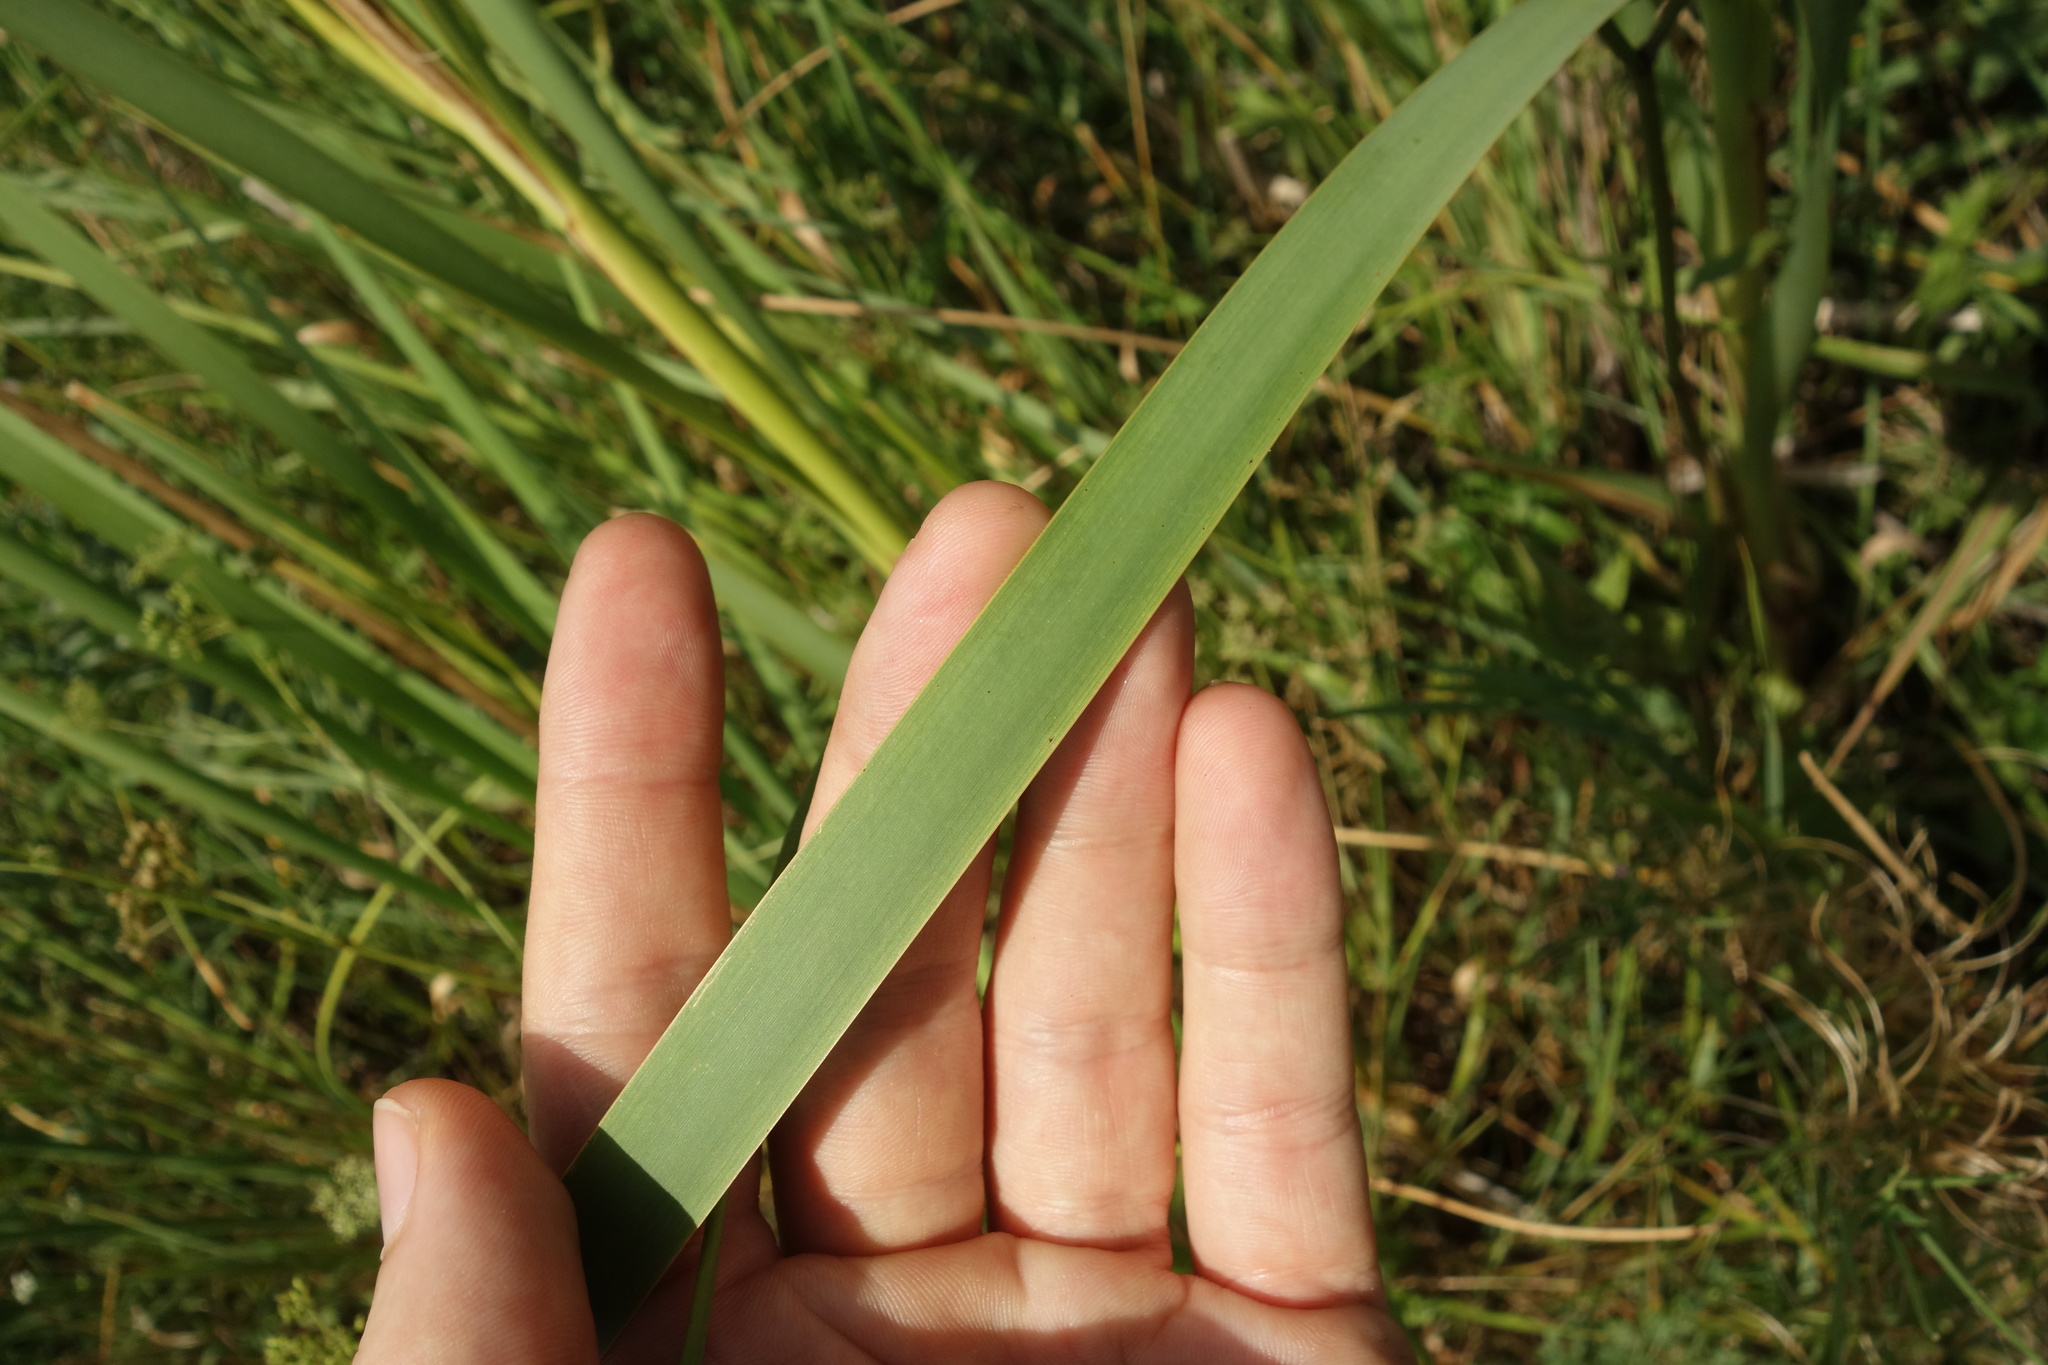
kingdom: Plantae
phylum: Tracheophyta
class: Liliopsida
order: Poales
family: Typhaceae
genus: Typha
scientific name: Typha latifolia
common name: Broadleaf cattail
